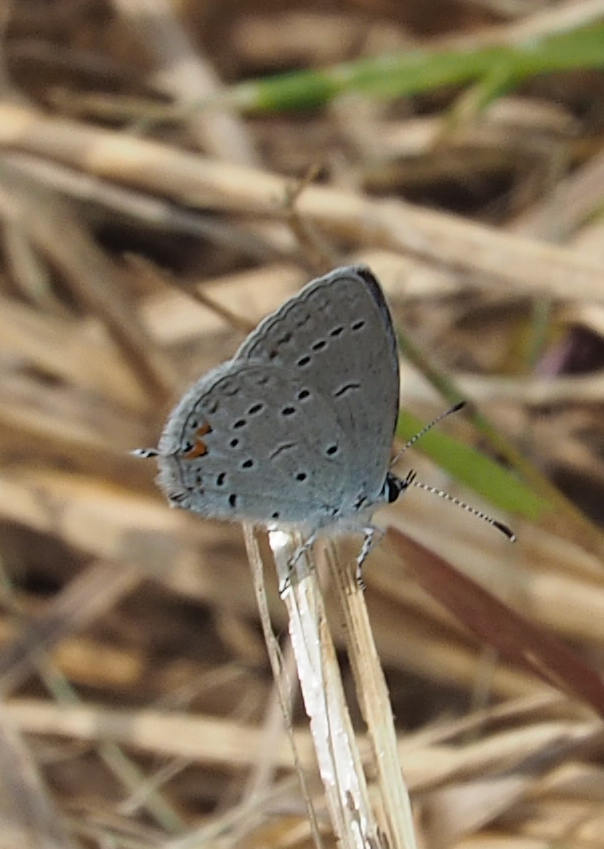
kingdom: Animalia
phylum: Arthropoda
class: Insecta
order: Lepidoptera
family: Lycaenidae
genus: Elkalyce
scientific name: Elkalyce comyntas
